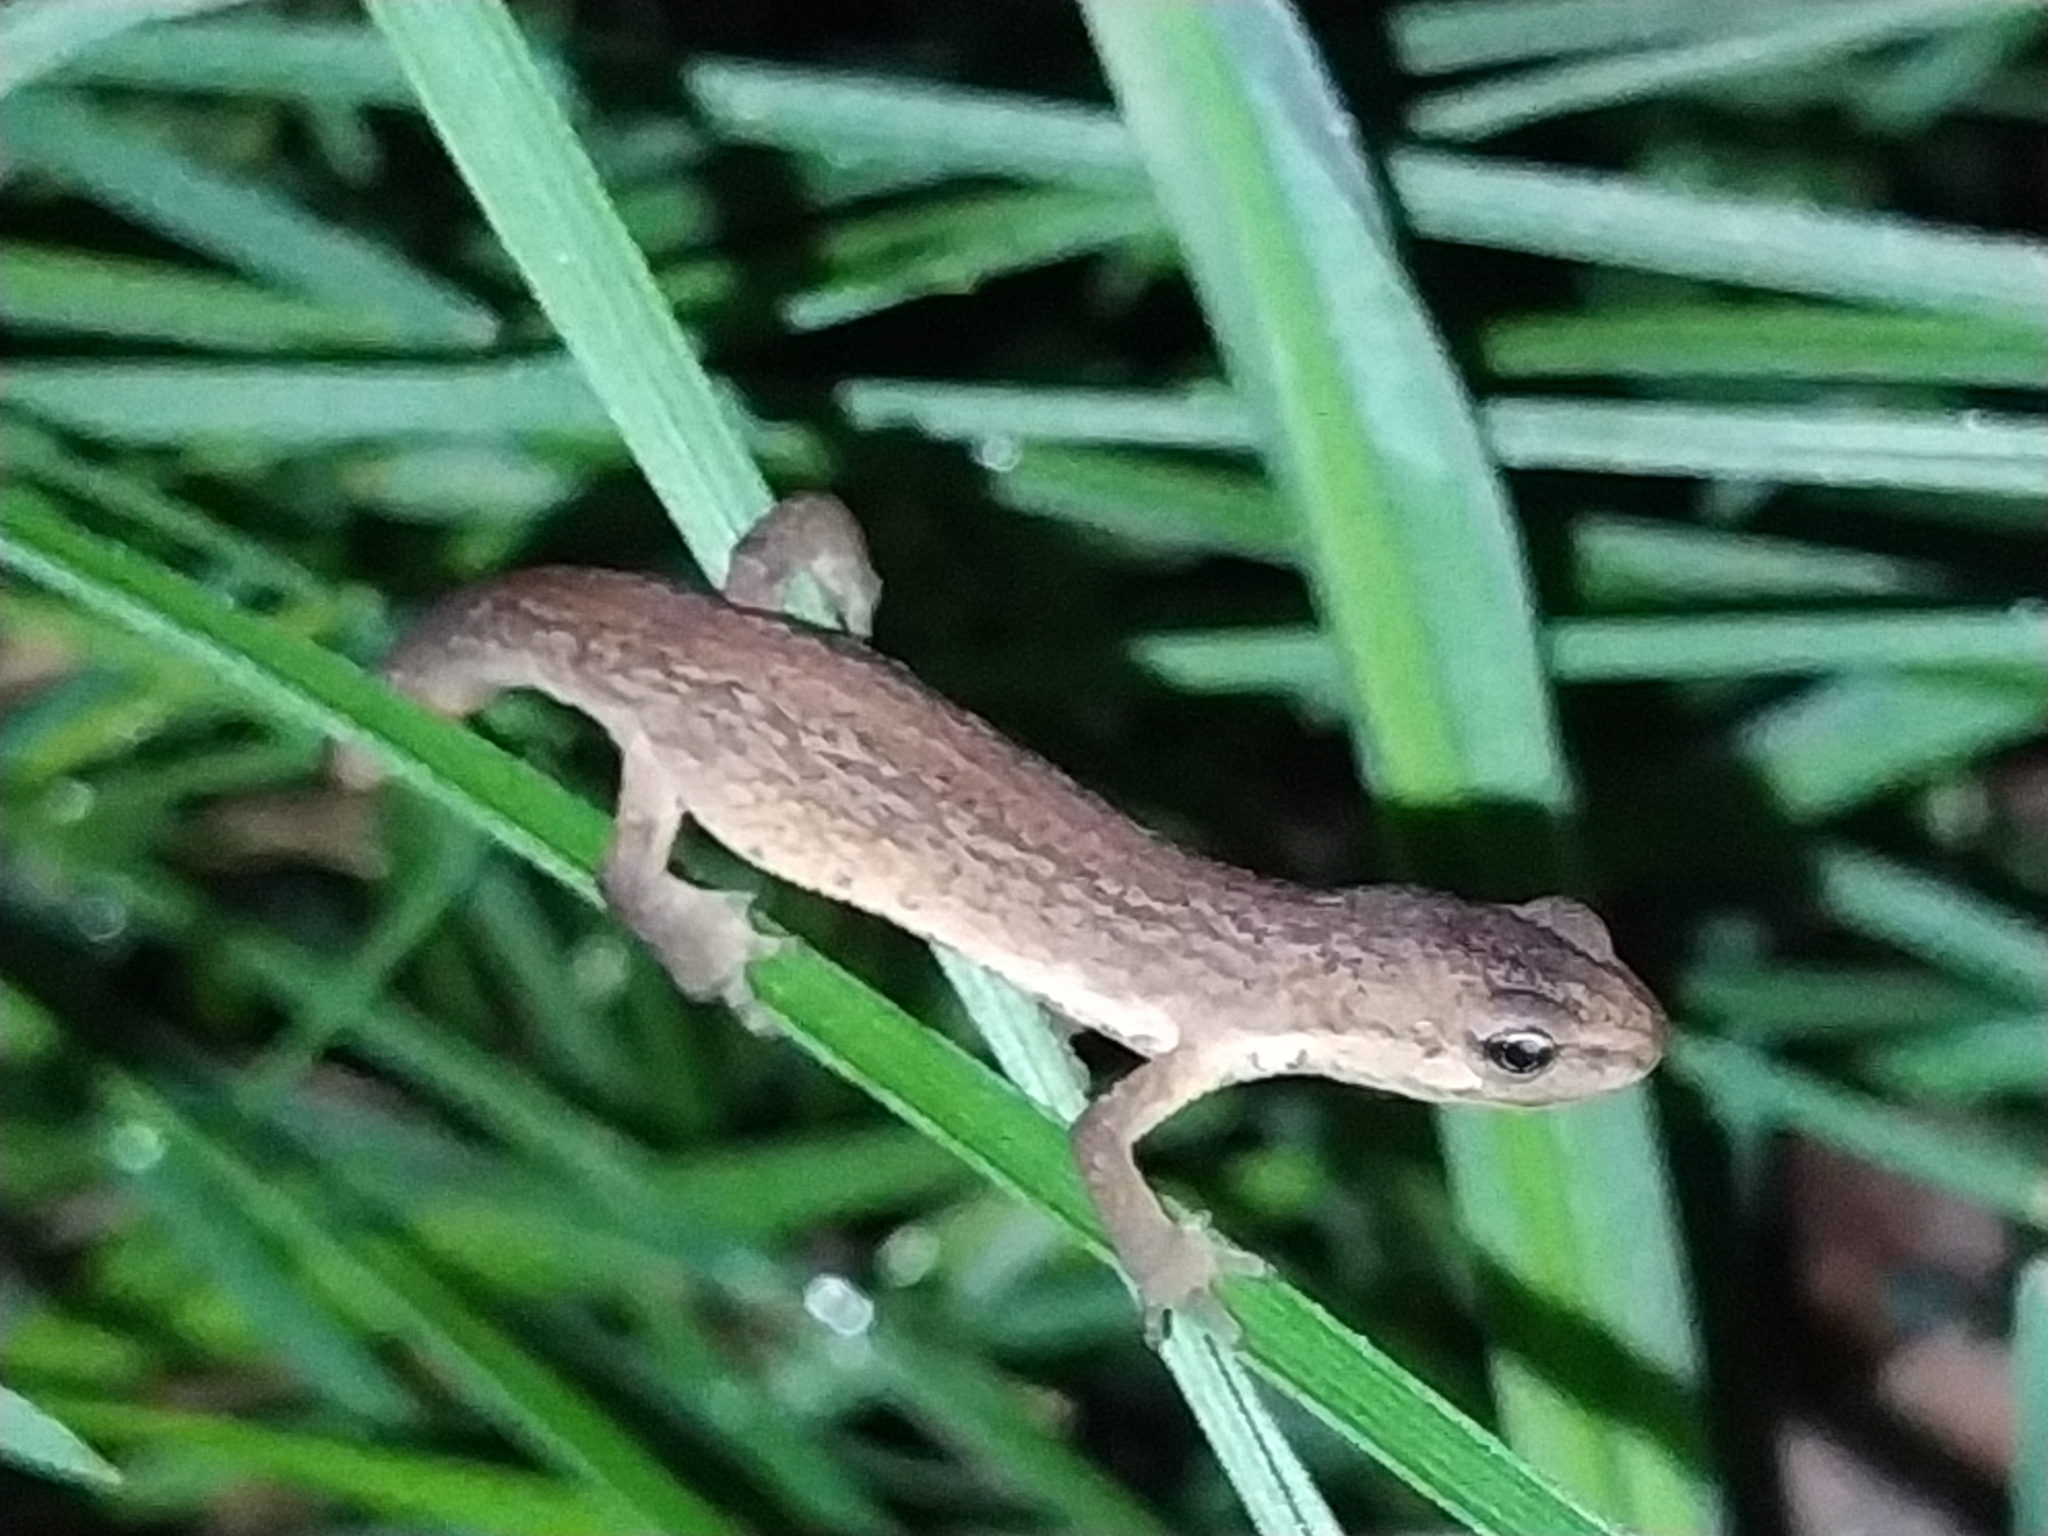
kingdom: Animalia
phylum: Chordata
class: Amphibia
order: Caudata
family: Salamandridae
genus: Lissotriton
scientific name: Lissotriton vulgaris
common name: Smooth newt
